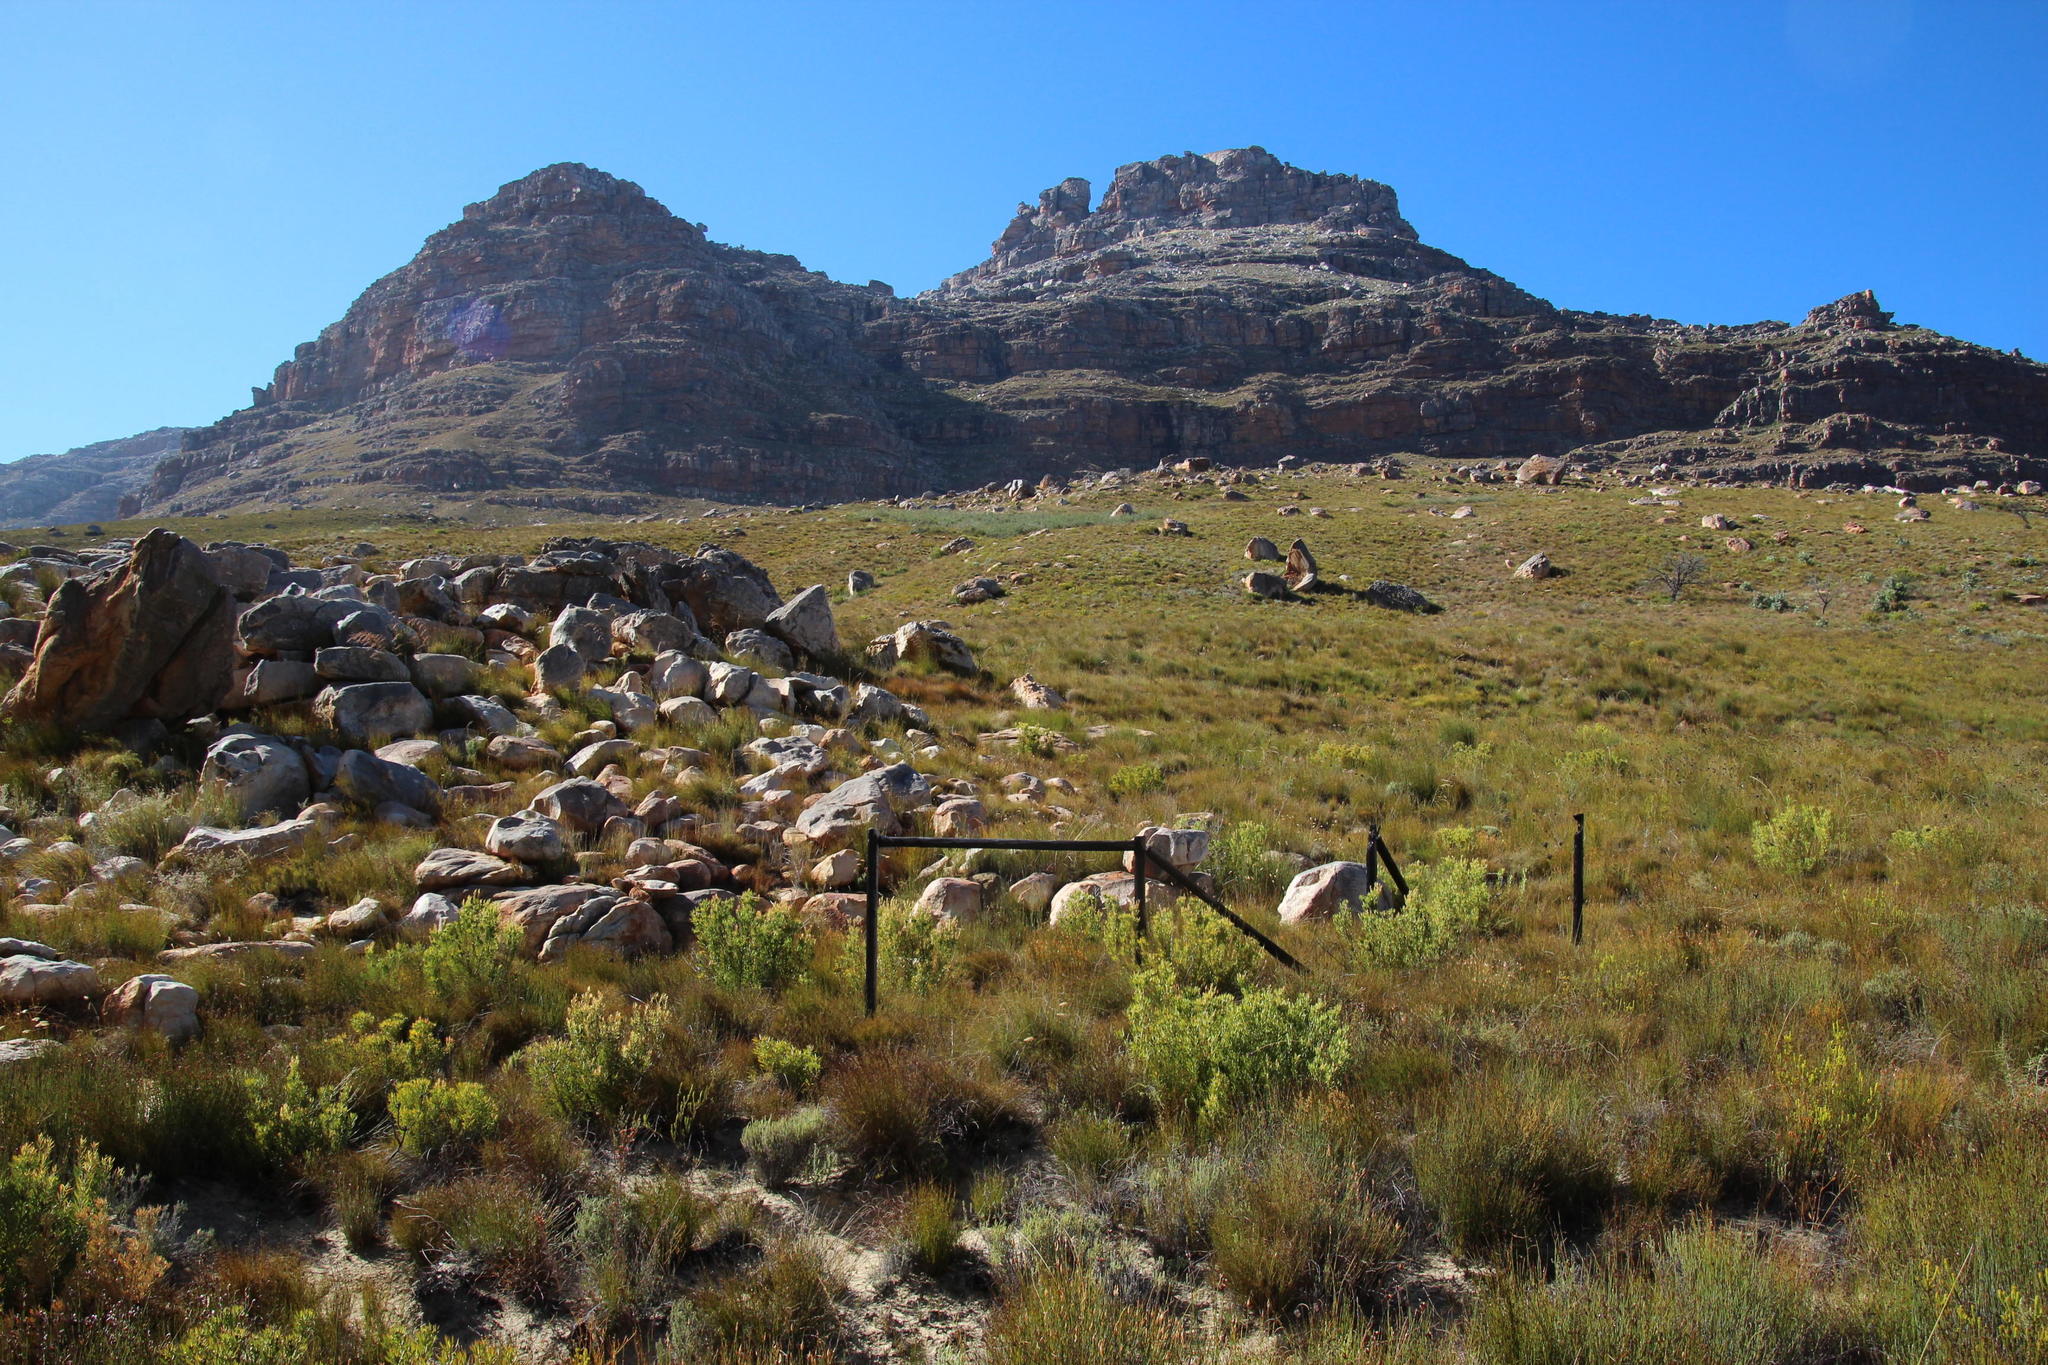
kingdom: Plantae
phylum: Tracheophyta
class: Magnoliopsida
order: Proteales
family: Proteaceae
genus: Leucadendron
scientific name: Leucadendron glaberrimum
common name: Common oily conebush
